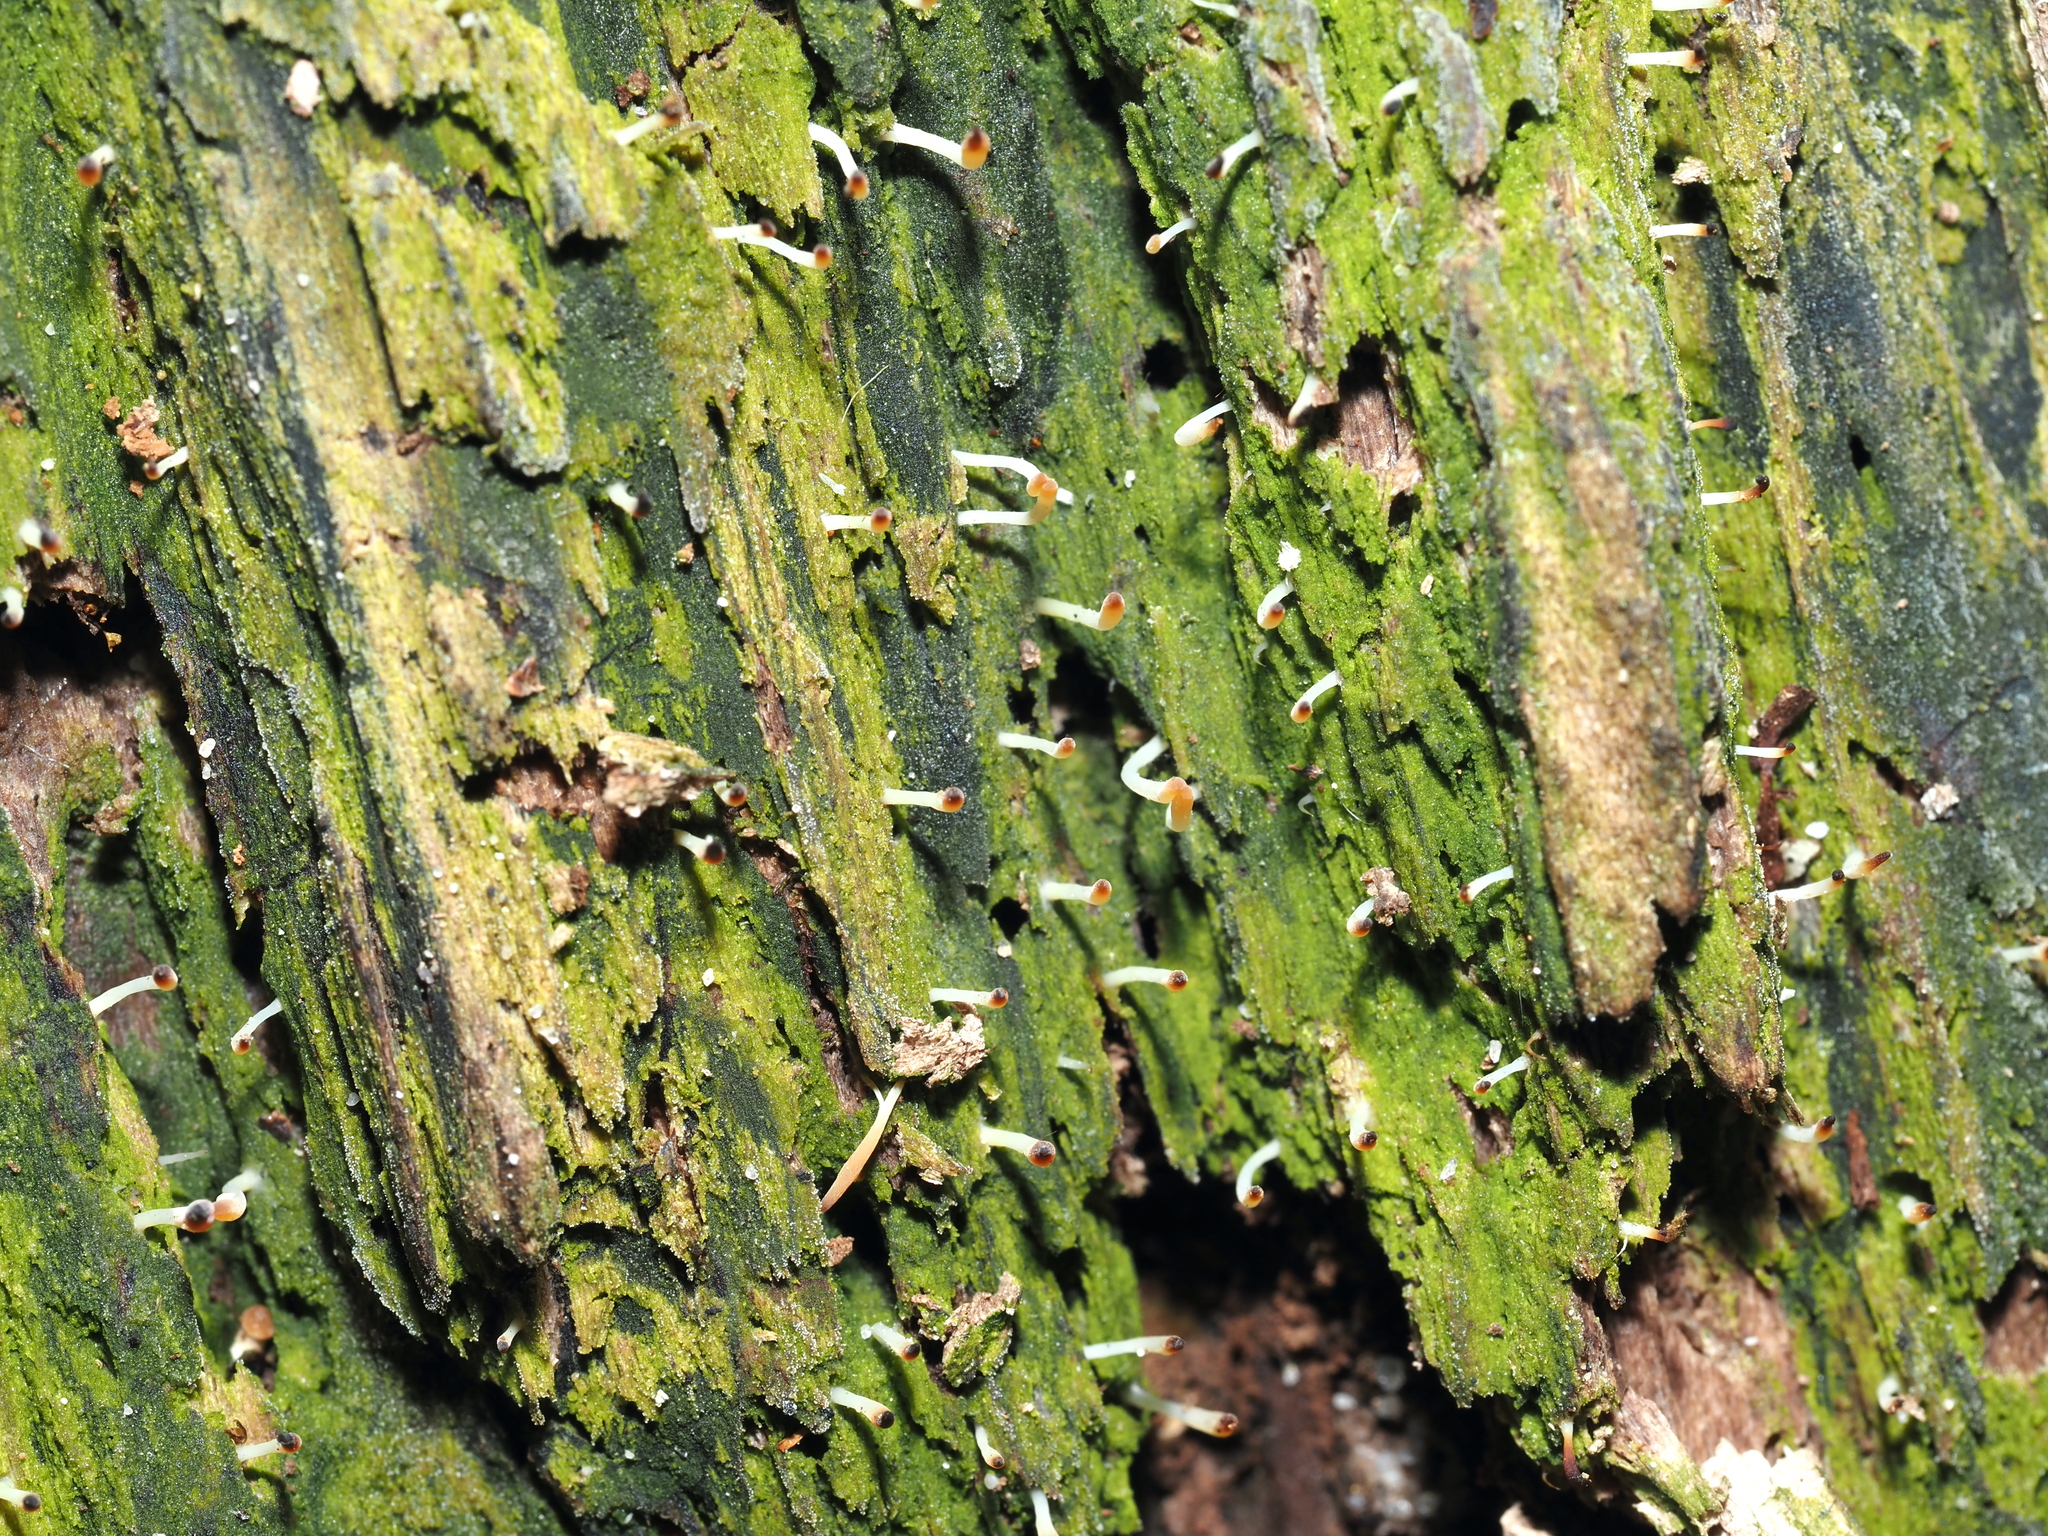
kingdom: Fungi
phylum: Basidiomycota
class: Agaricomycetes
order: Cantharellales
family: Hydnaceae
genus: Multiclavula
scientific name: Multiclavula mucida
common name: White green-algae coral
